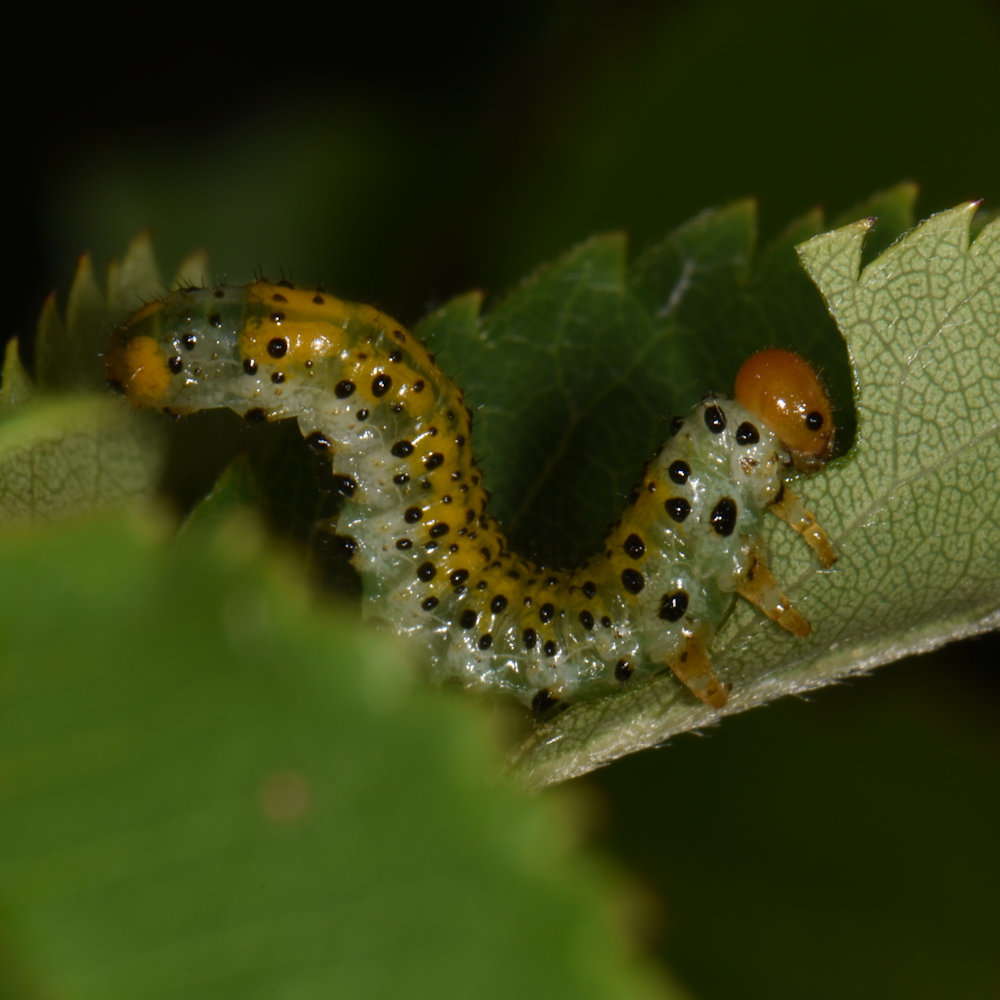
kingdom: Animalia
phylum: Arthropoda
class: Insecta
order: Hymenoptera
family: Argidae
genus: Arge
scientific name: Arge ochropus
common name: Argid sawfly
